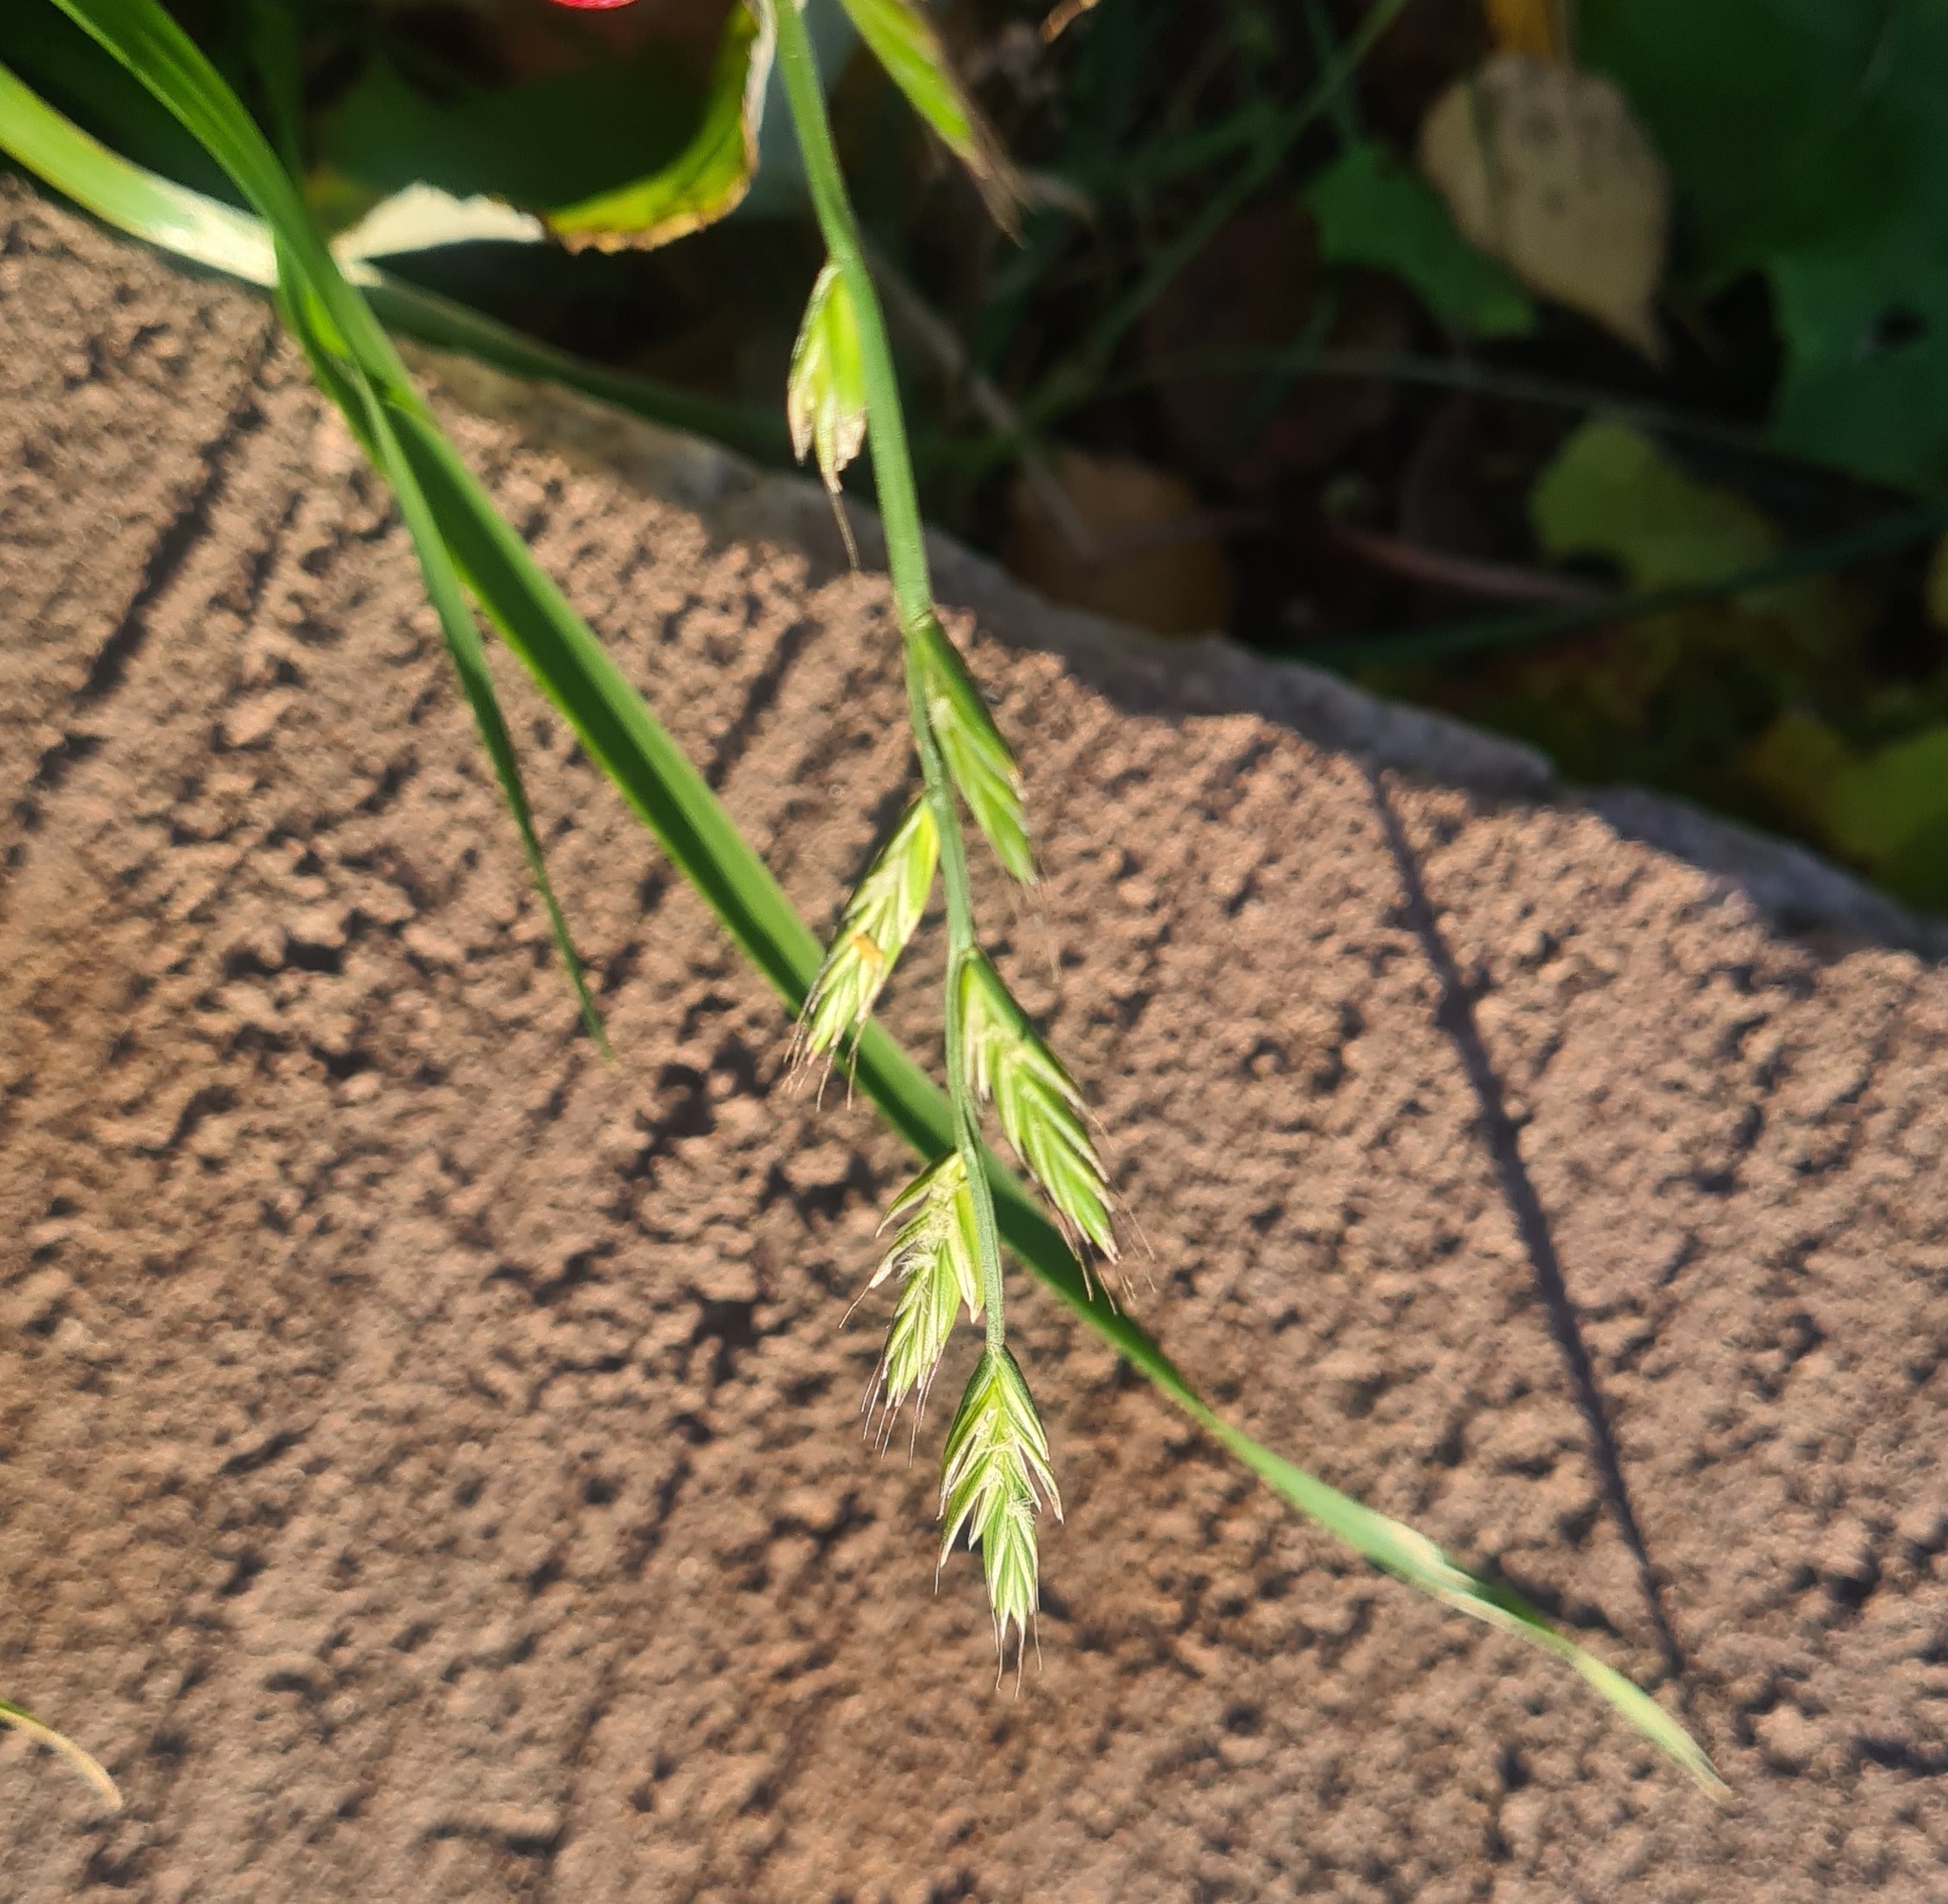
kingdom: Plantae
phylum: Tracheophyta
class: Liliopsida
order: Poales
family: Poaceae
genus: Lolium
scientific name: Lolium multiflorum
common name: Annual ryegrass
